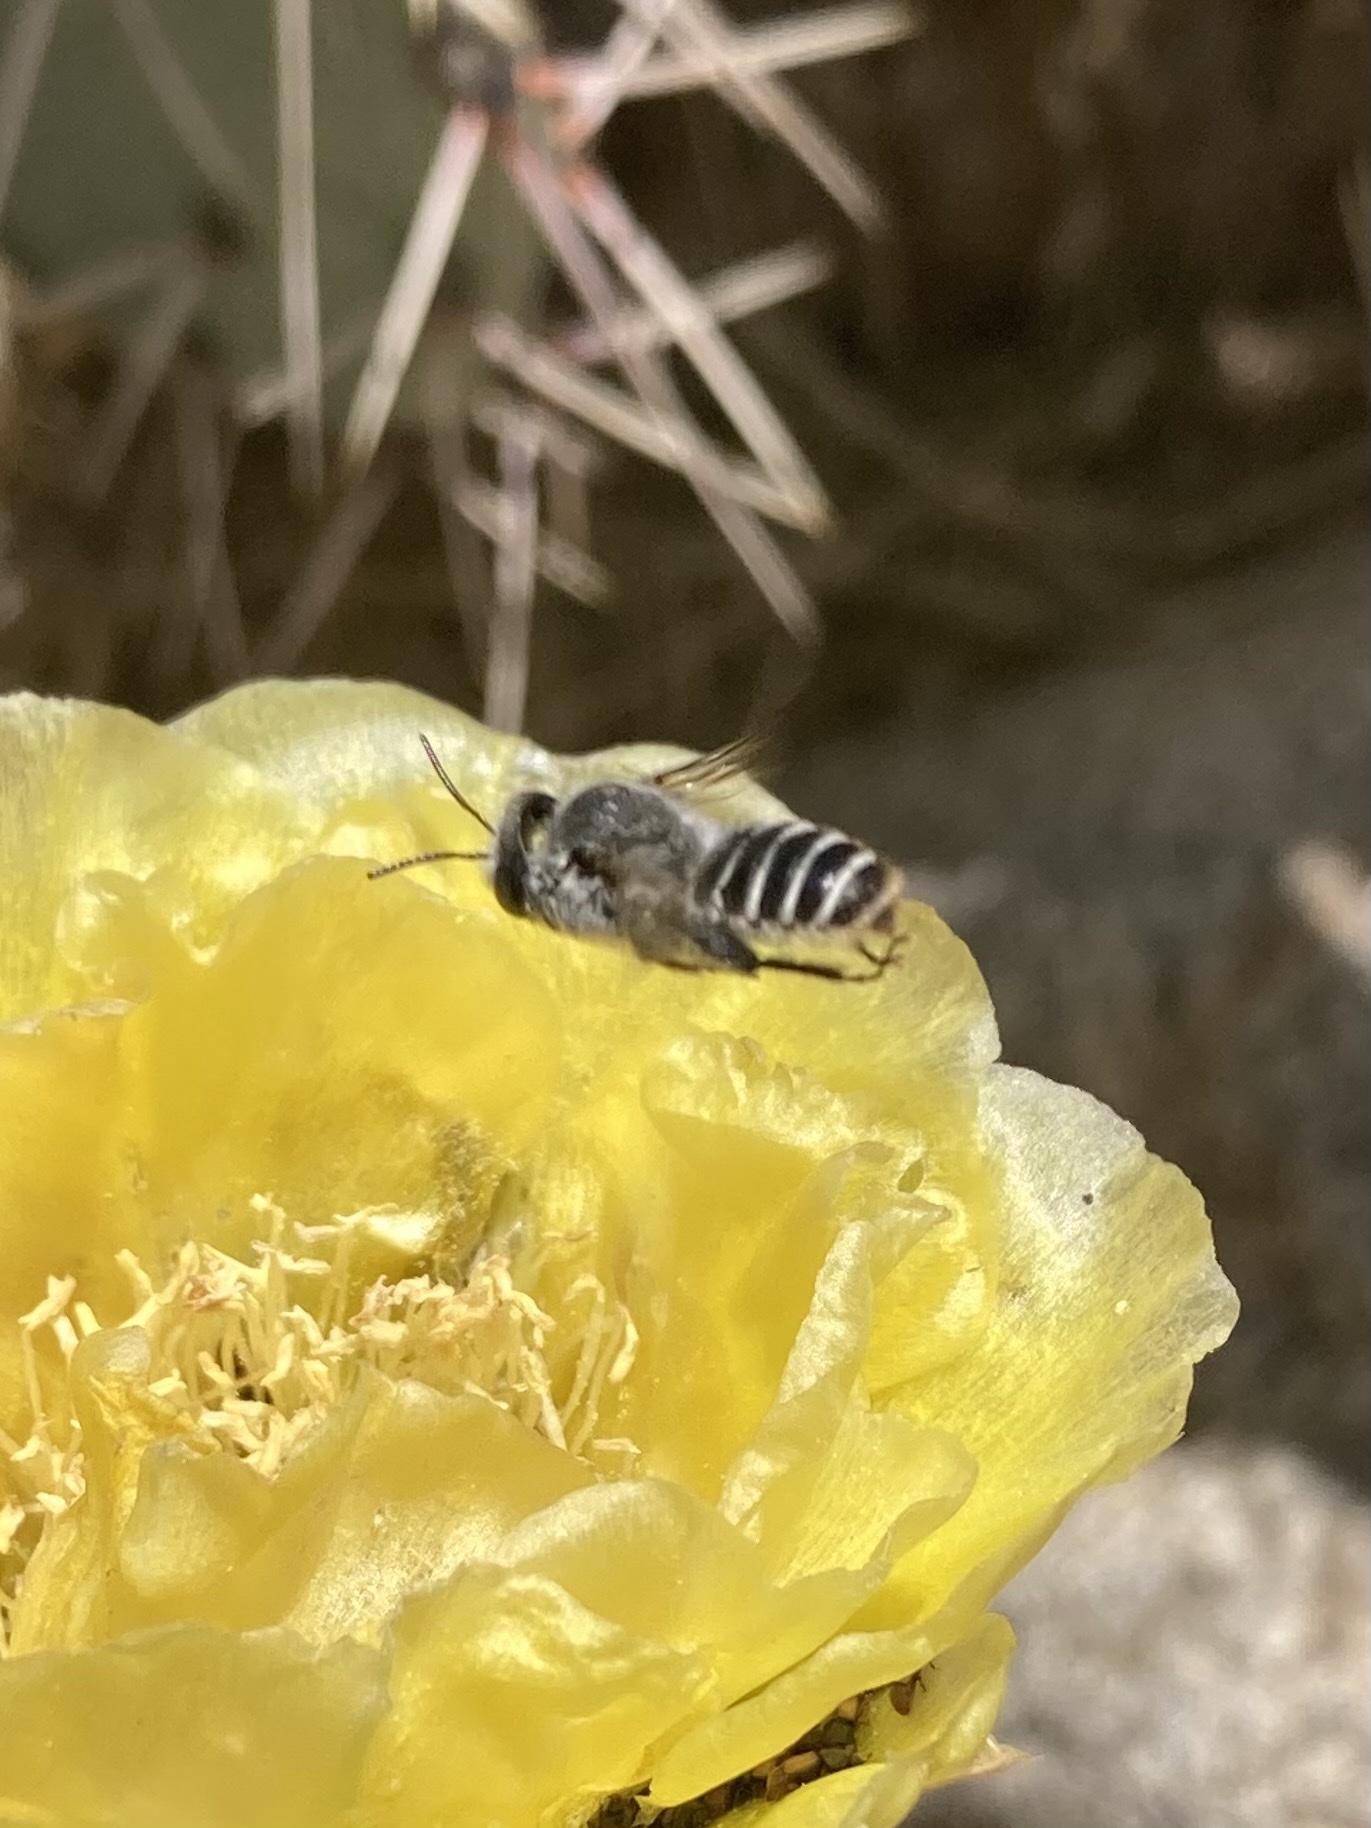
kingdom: Animalia
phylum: Arthropoda
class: Insecta
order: Hymenoptera
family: Megachilidae
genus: Lithurgopsis
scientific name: Lithurgopsis apicalis
